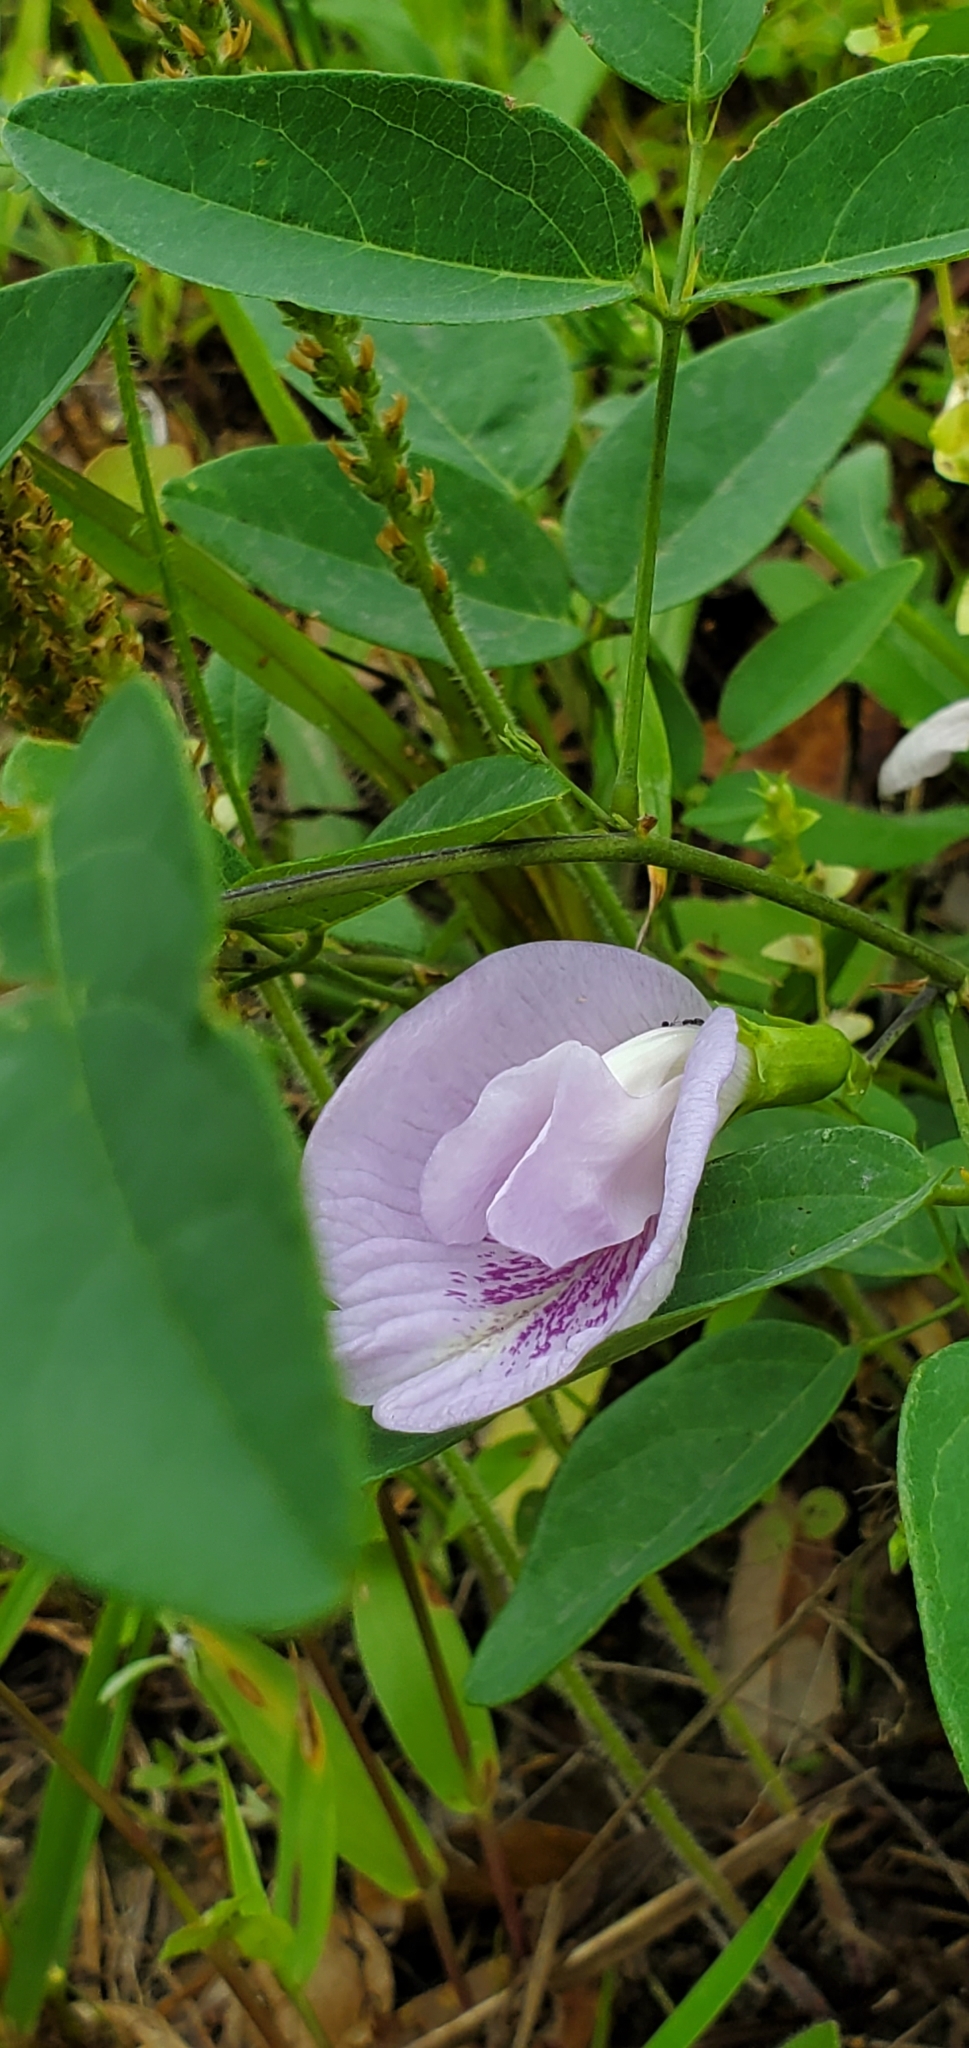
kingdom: Plantae
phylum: Tracheophyta
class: Magnoliopsida
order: Fabales
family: Fabaceae
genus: Clitoria
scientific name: Clitoria mariana
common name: Butterfly-pea
